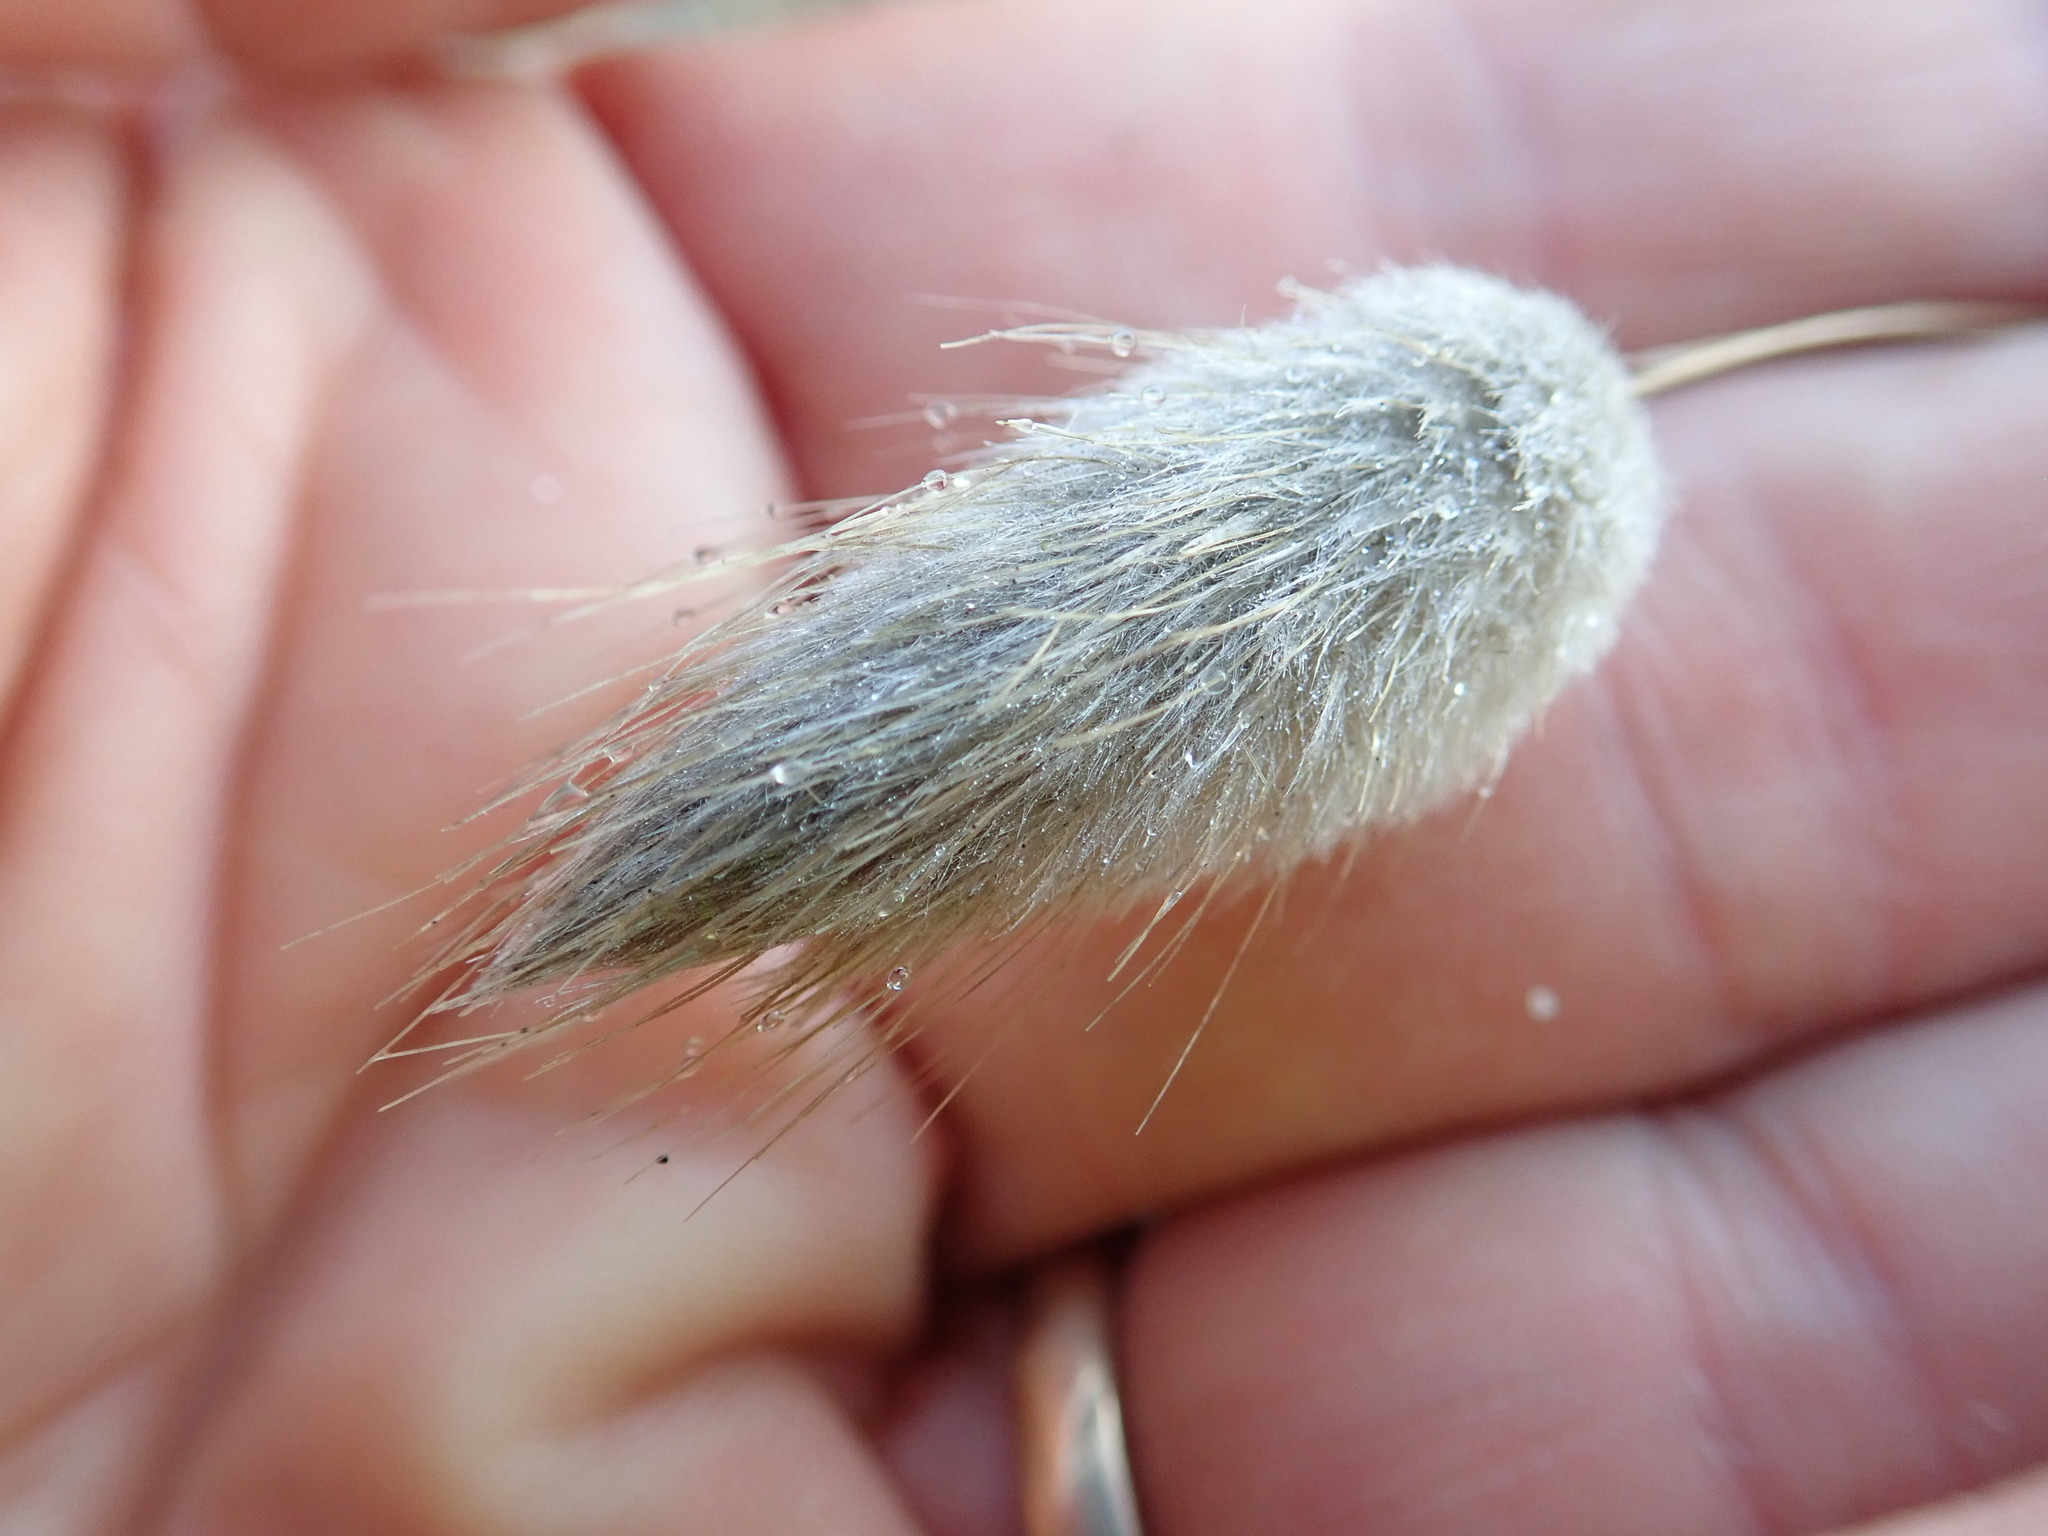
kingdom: Plantae
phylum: Tracheophyta
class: Liliopsida
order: Poales
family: Poaceae
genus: Lagurus
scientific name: Lagurus ovatus
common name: Hare's-tail
